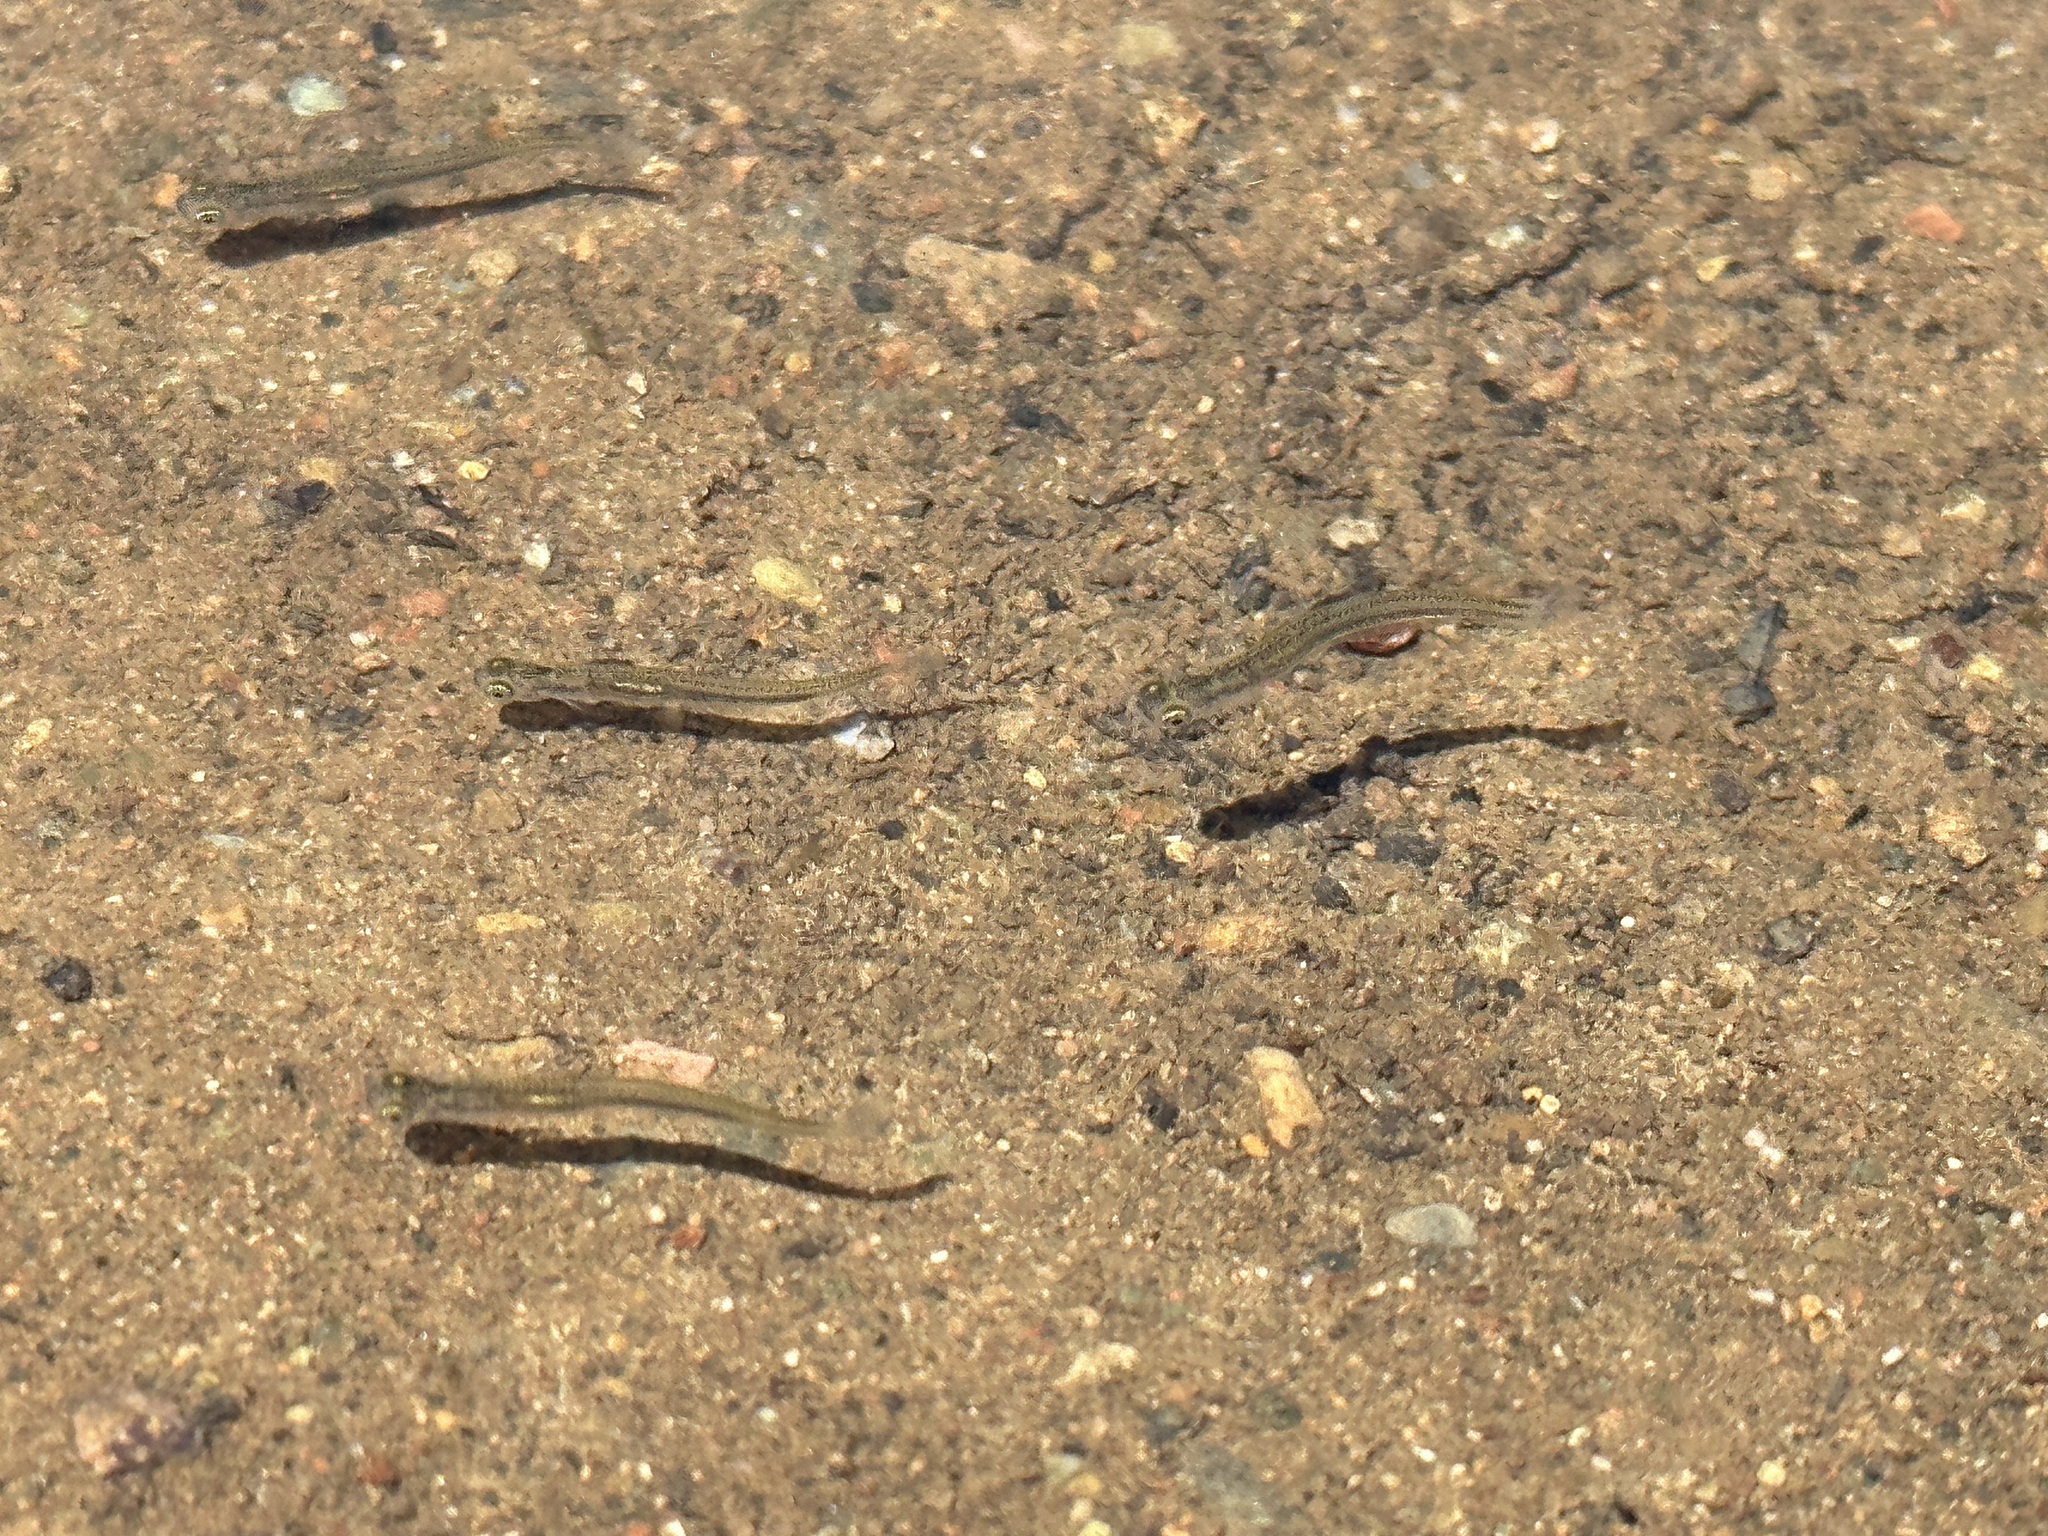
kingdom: Animalia
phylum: Chordata
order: Cyprinodontiformes
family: Poeciliidae
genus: Gambusia
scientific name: Gambusia affinis
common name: Mosquitofish
